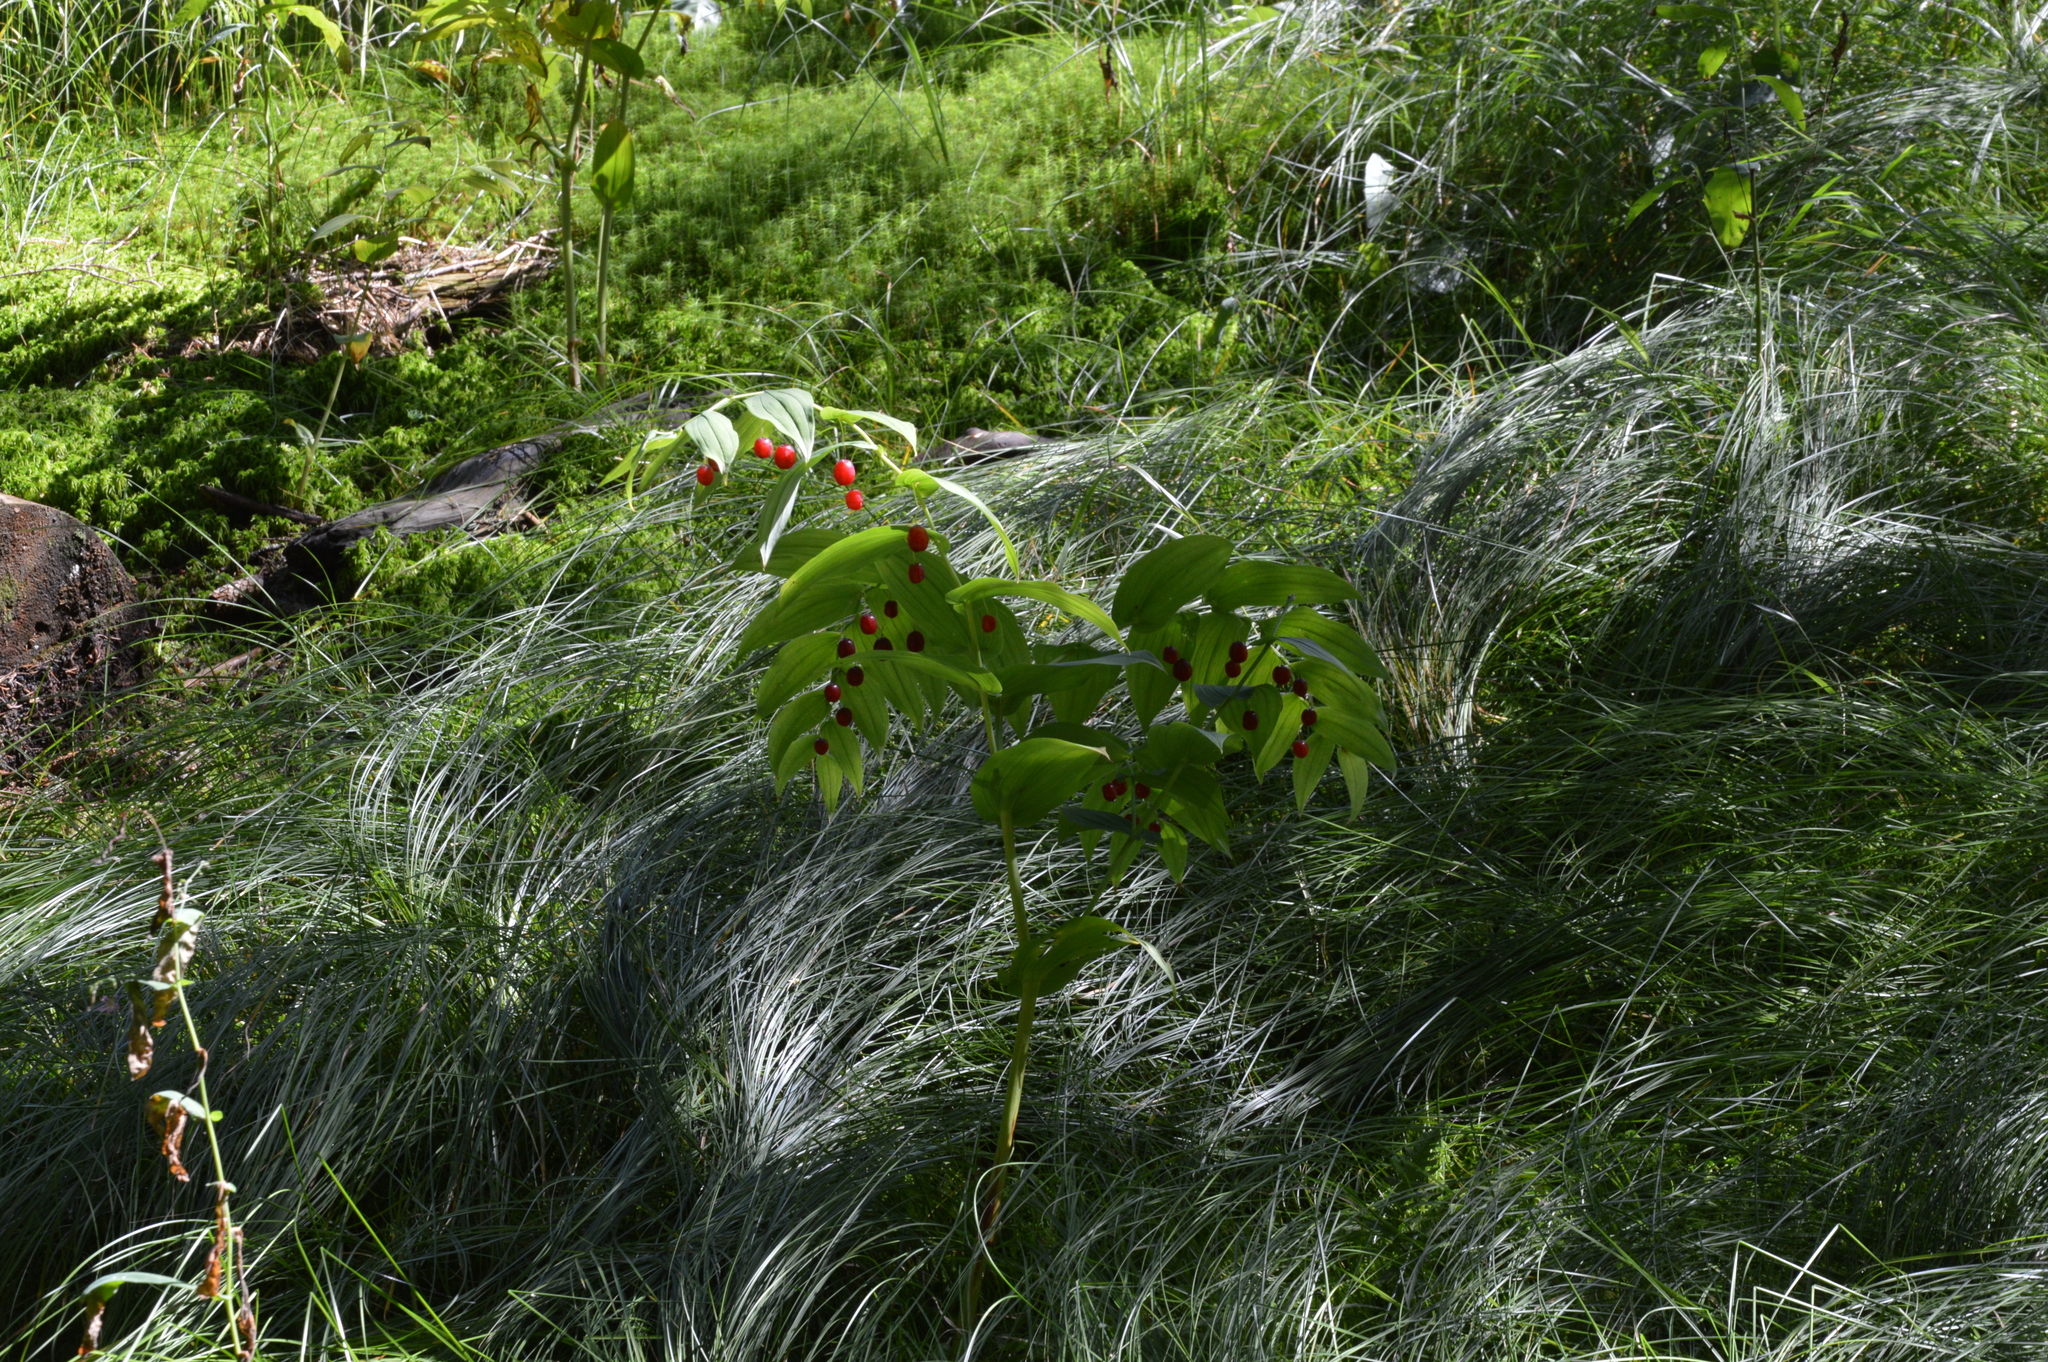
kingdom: Plantae
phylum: Tracheophyta
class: Liliopsida
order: Liliales
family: Liliaceae
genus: Streptopus
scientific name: Streptopus amplexifolius
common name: Clasp twisted stalk
